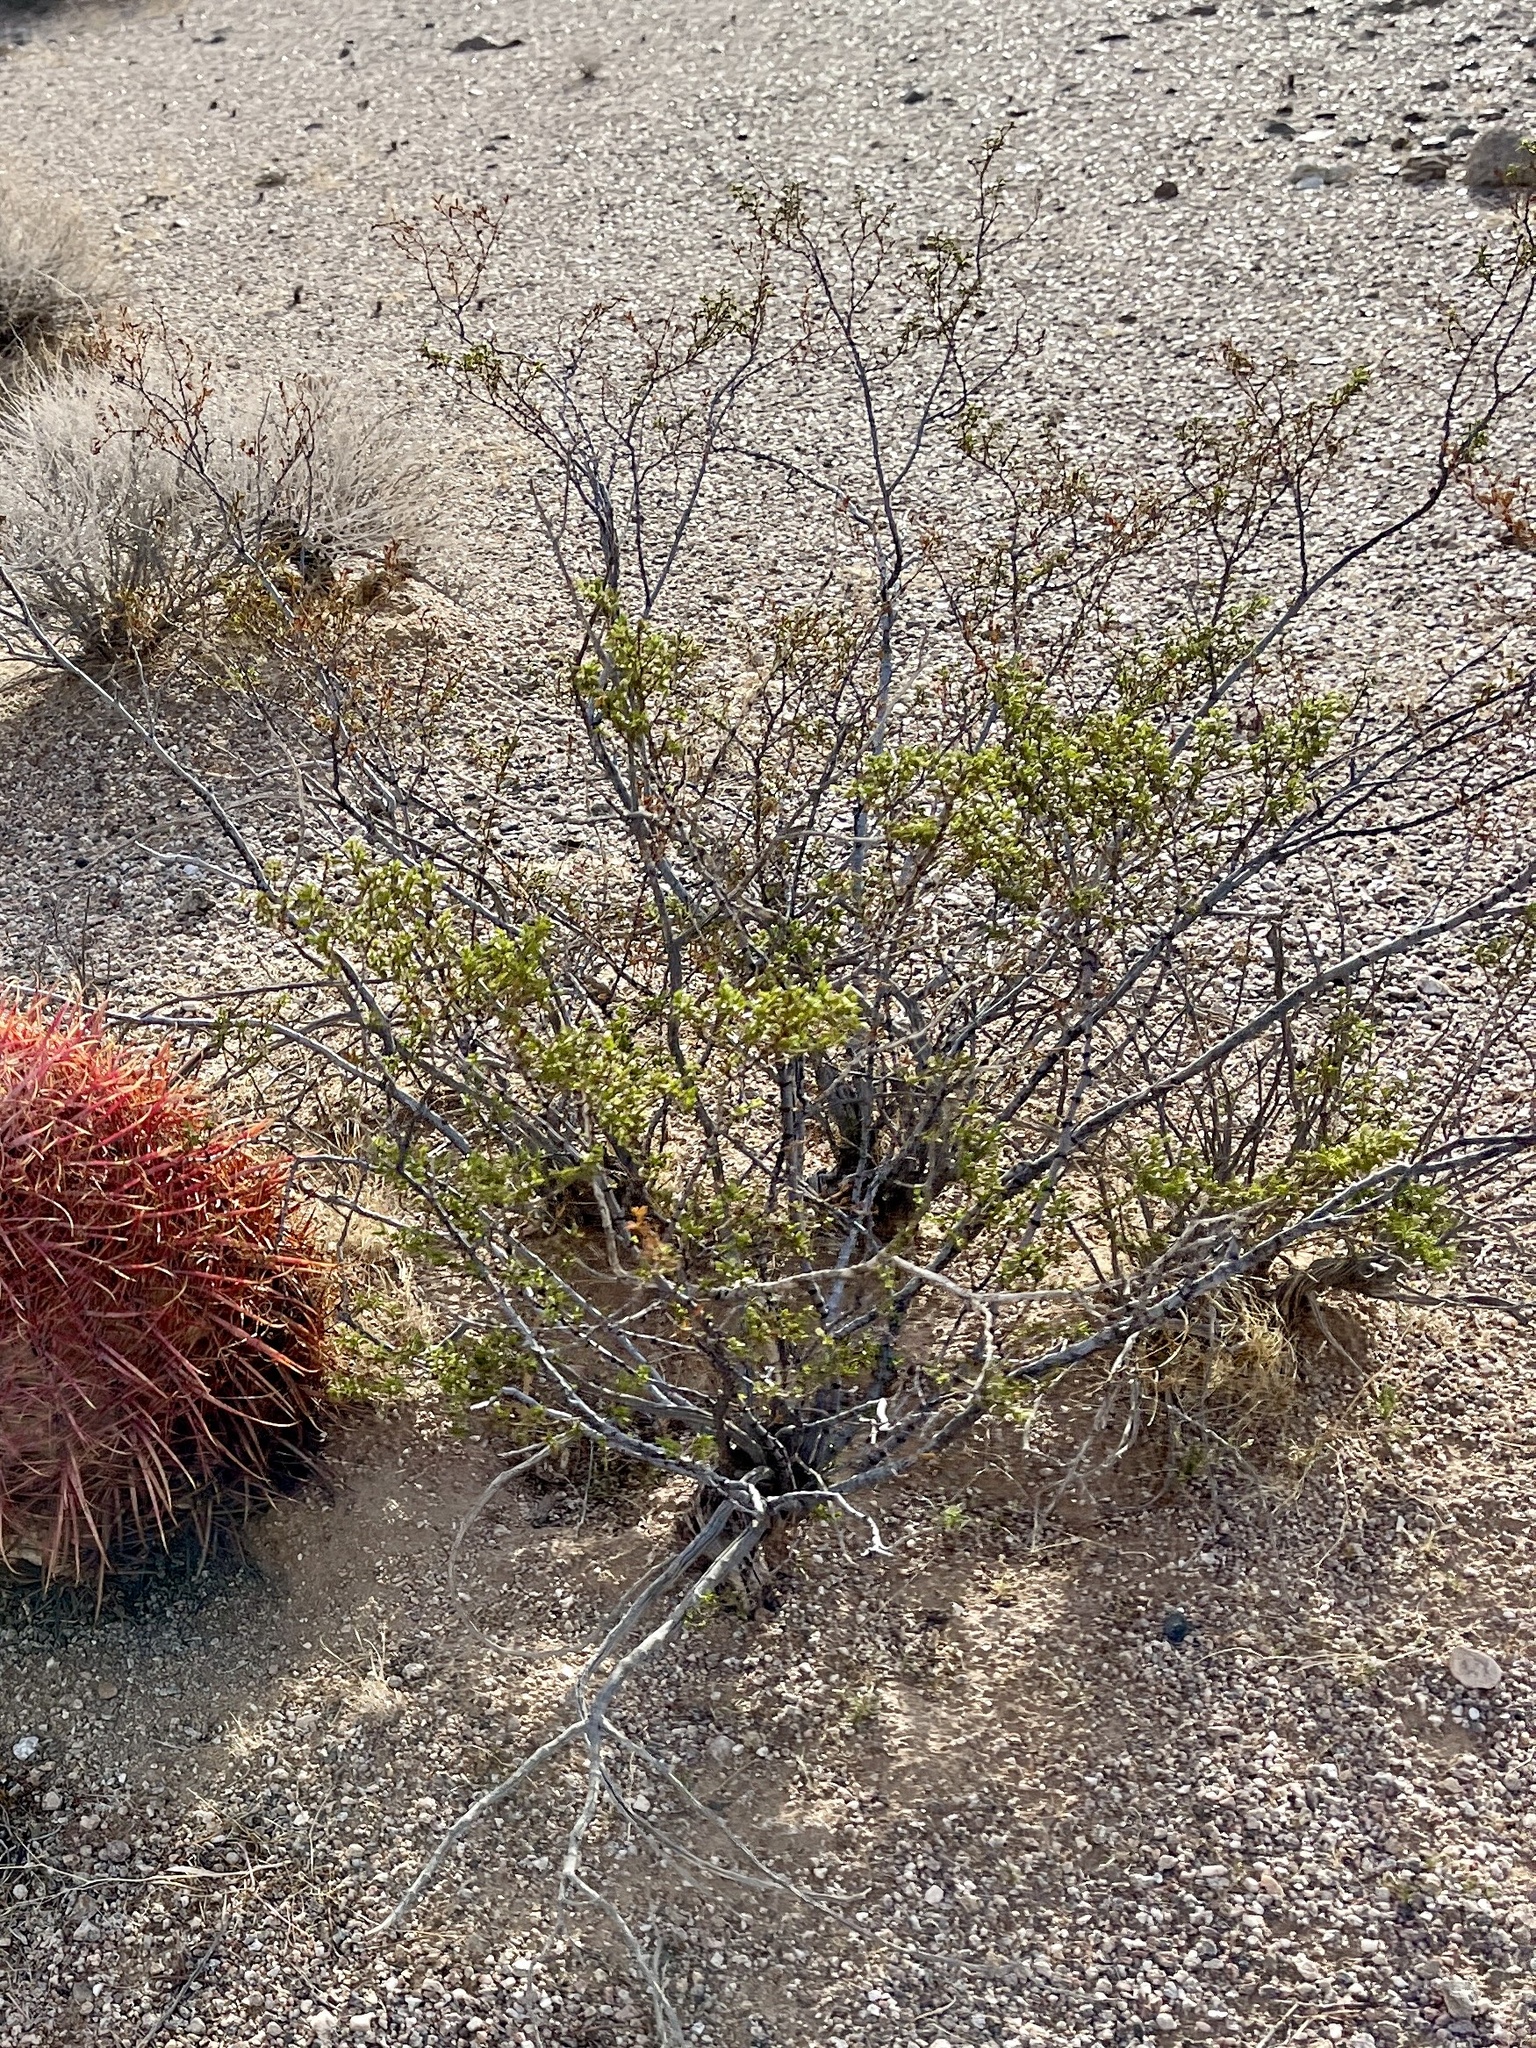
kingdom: Plantae
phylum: Tracheophyta
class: Magnoliopsida
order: Zygophyllales
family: Zygophyllaceae
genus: Larrea
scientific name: Larrea tridentata
